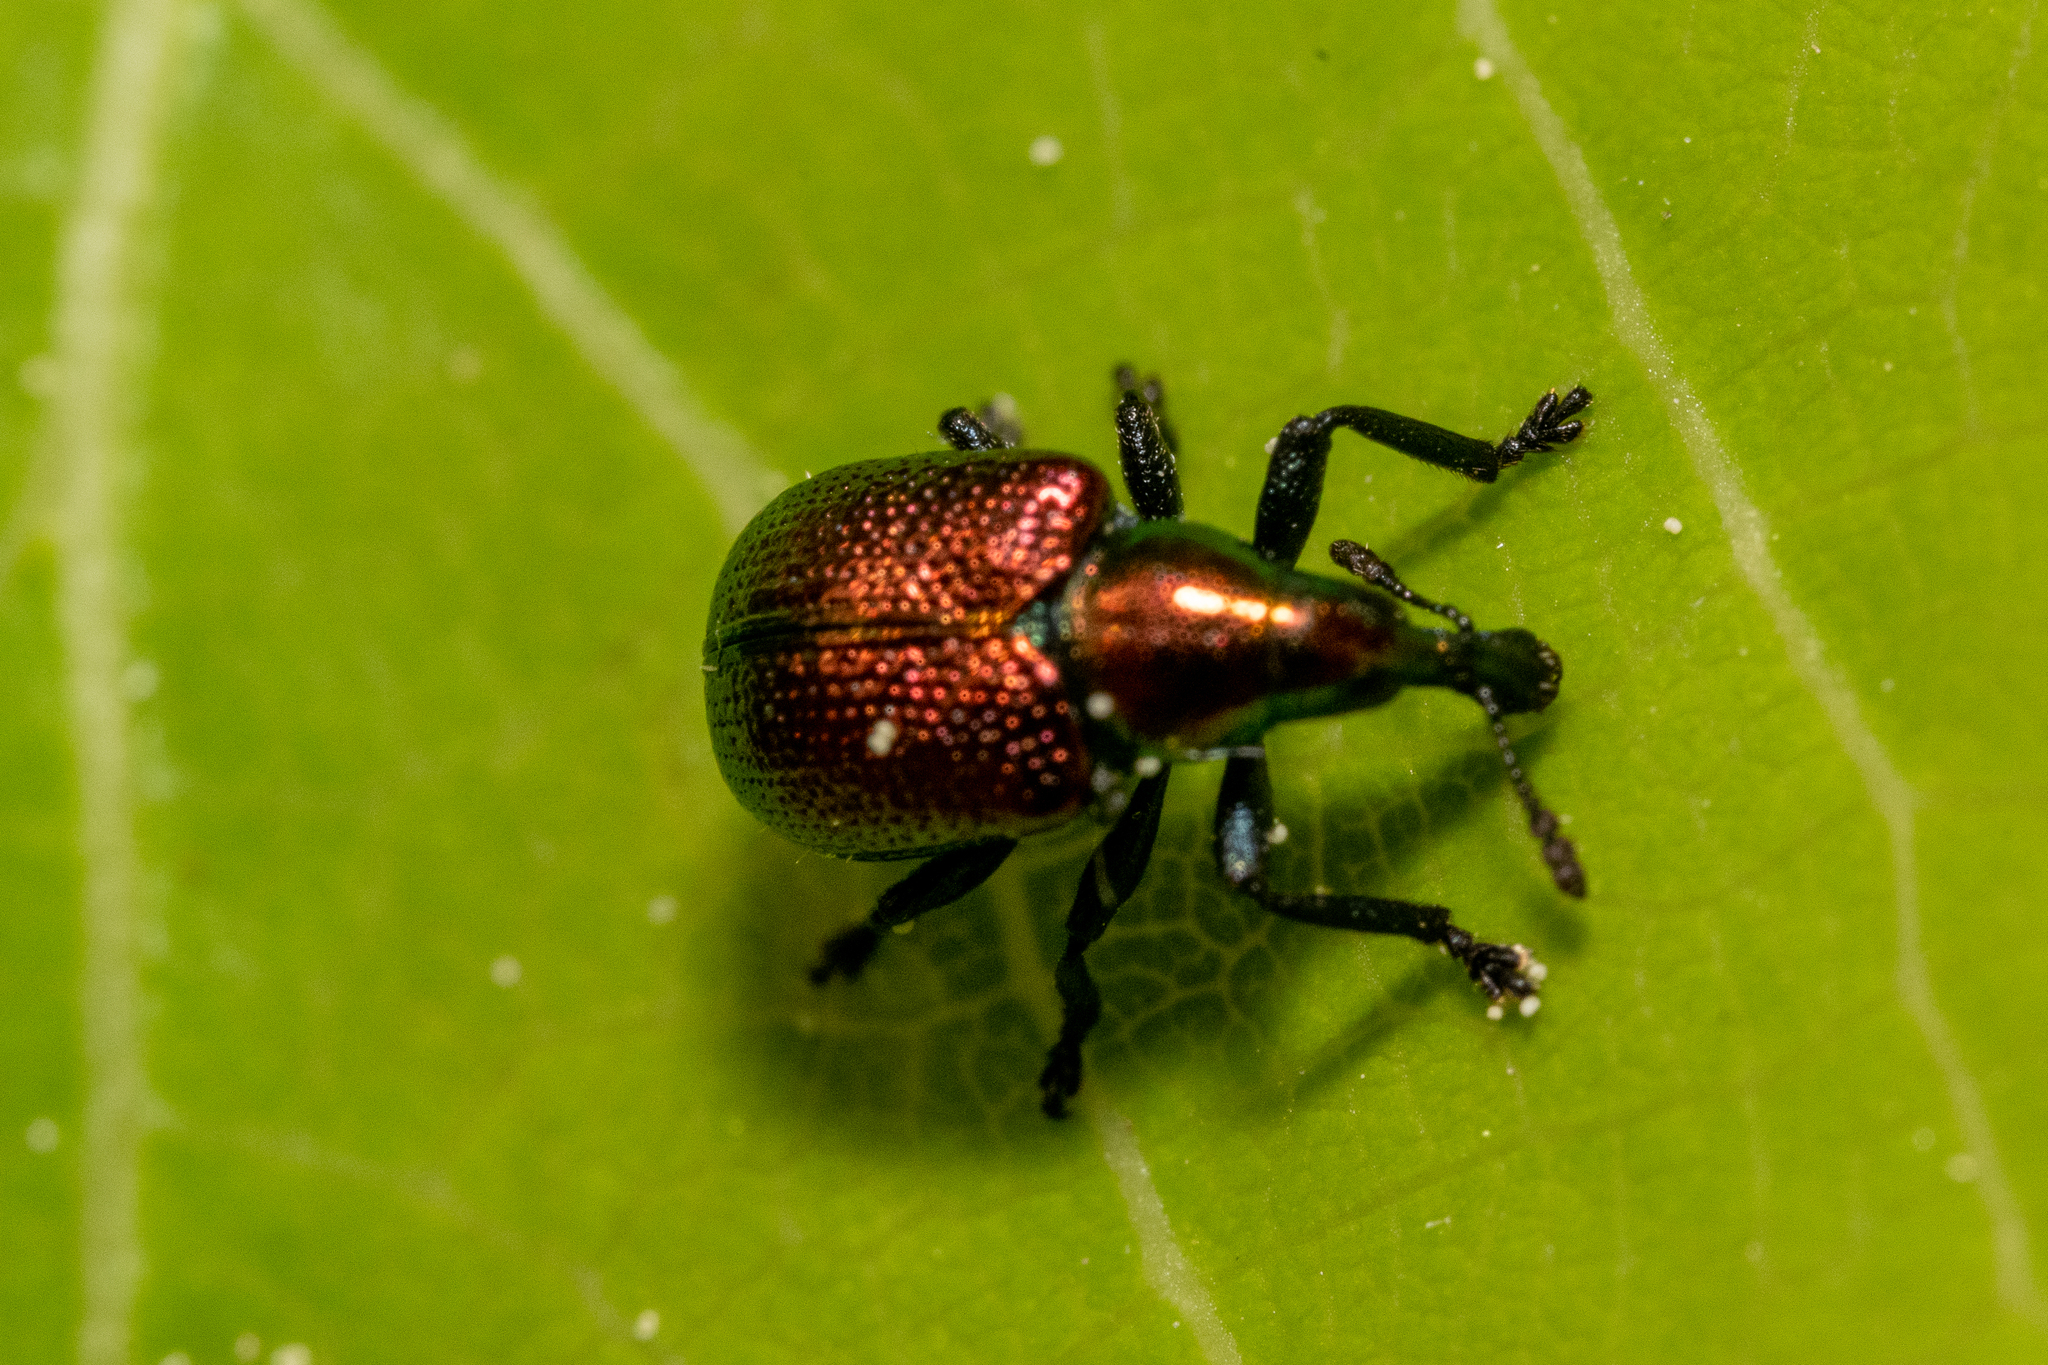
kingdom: Animalia
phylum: Arthropoda
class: Insecta
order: Coleoptera
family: Attelabidae
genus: Byctiscus
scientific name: Byctiscus populi
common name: Leaf-rolling weevil
